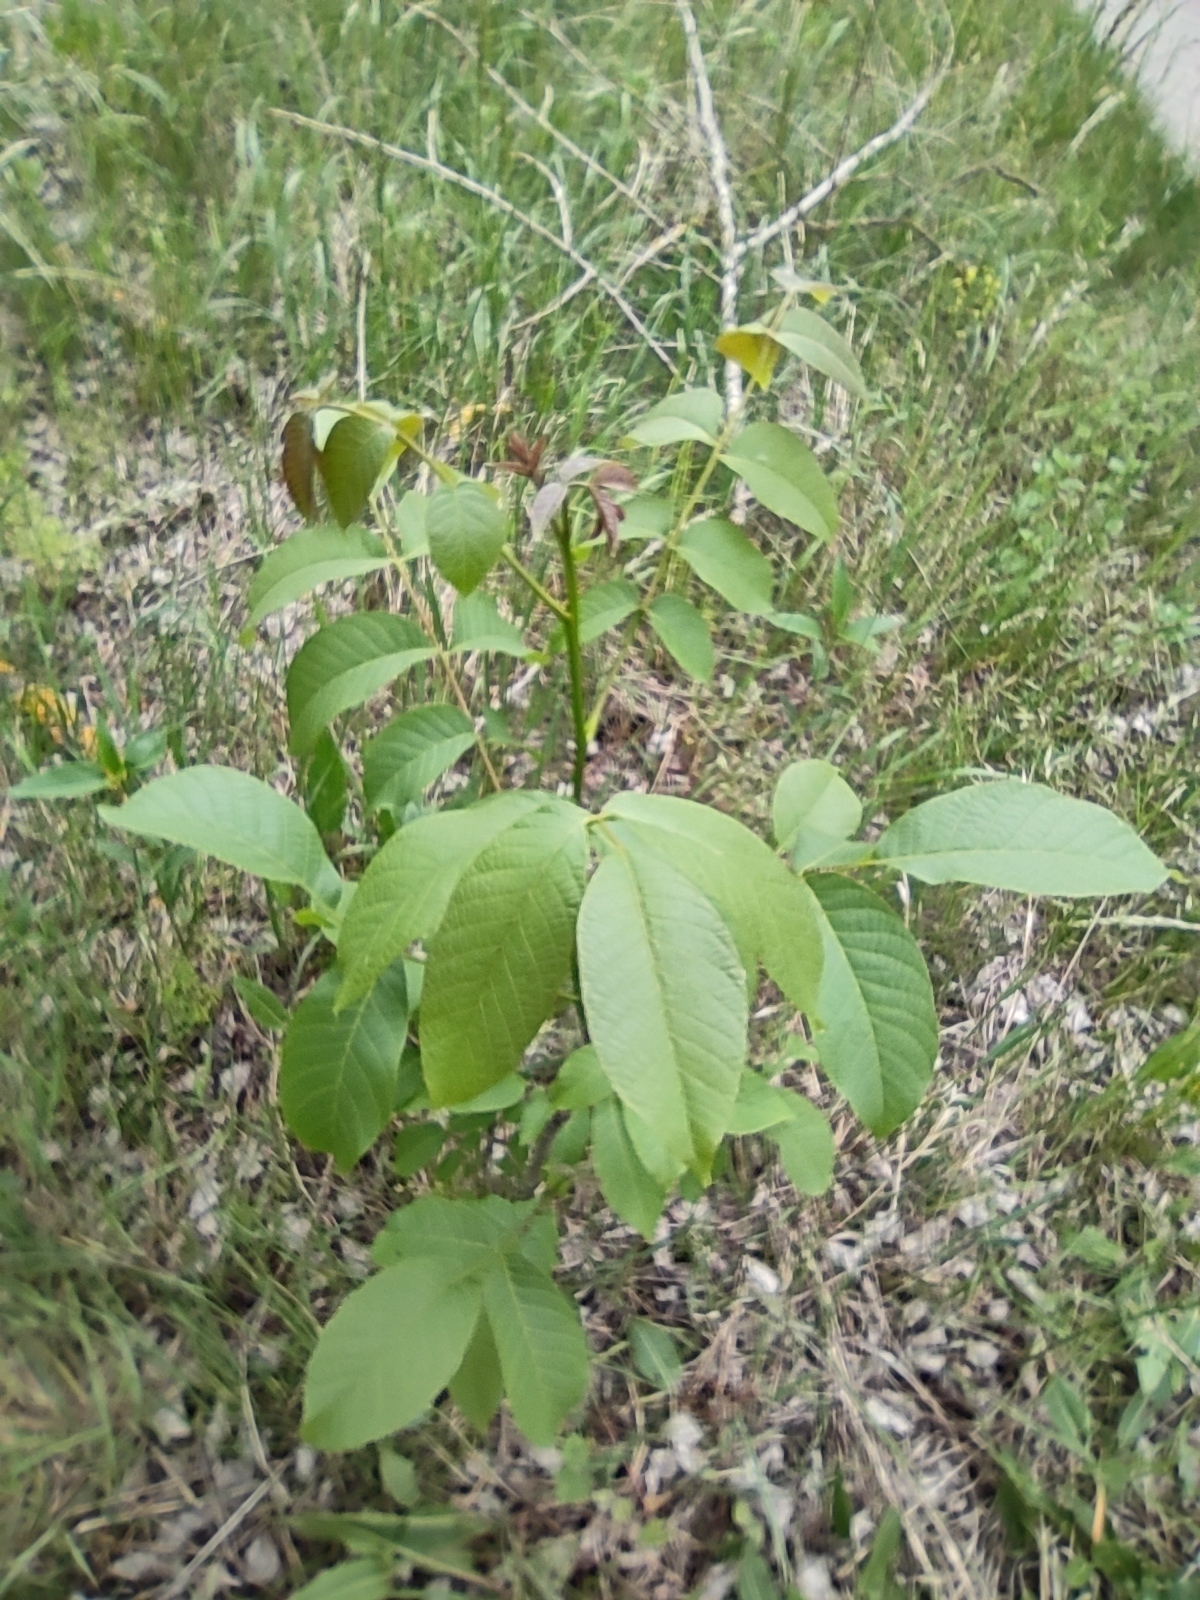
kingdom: Plantae
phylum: Tracheophyta
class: Magnoliopsida
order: Fagales
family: Juglandaceae
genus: Juglans
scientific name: Juglans regia
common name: Walnut
